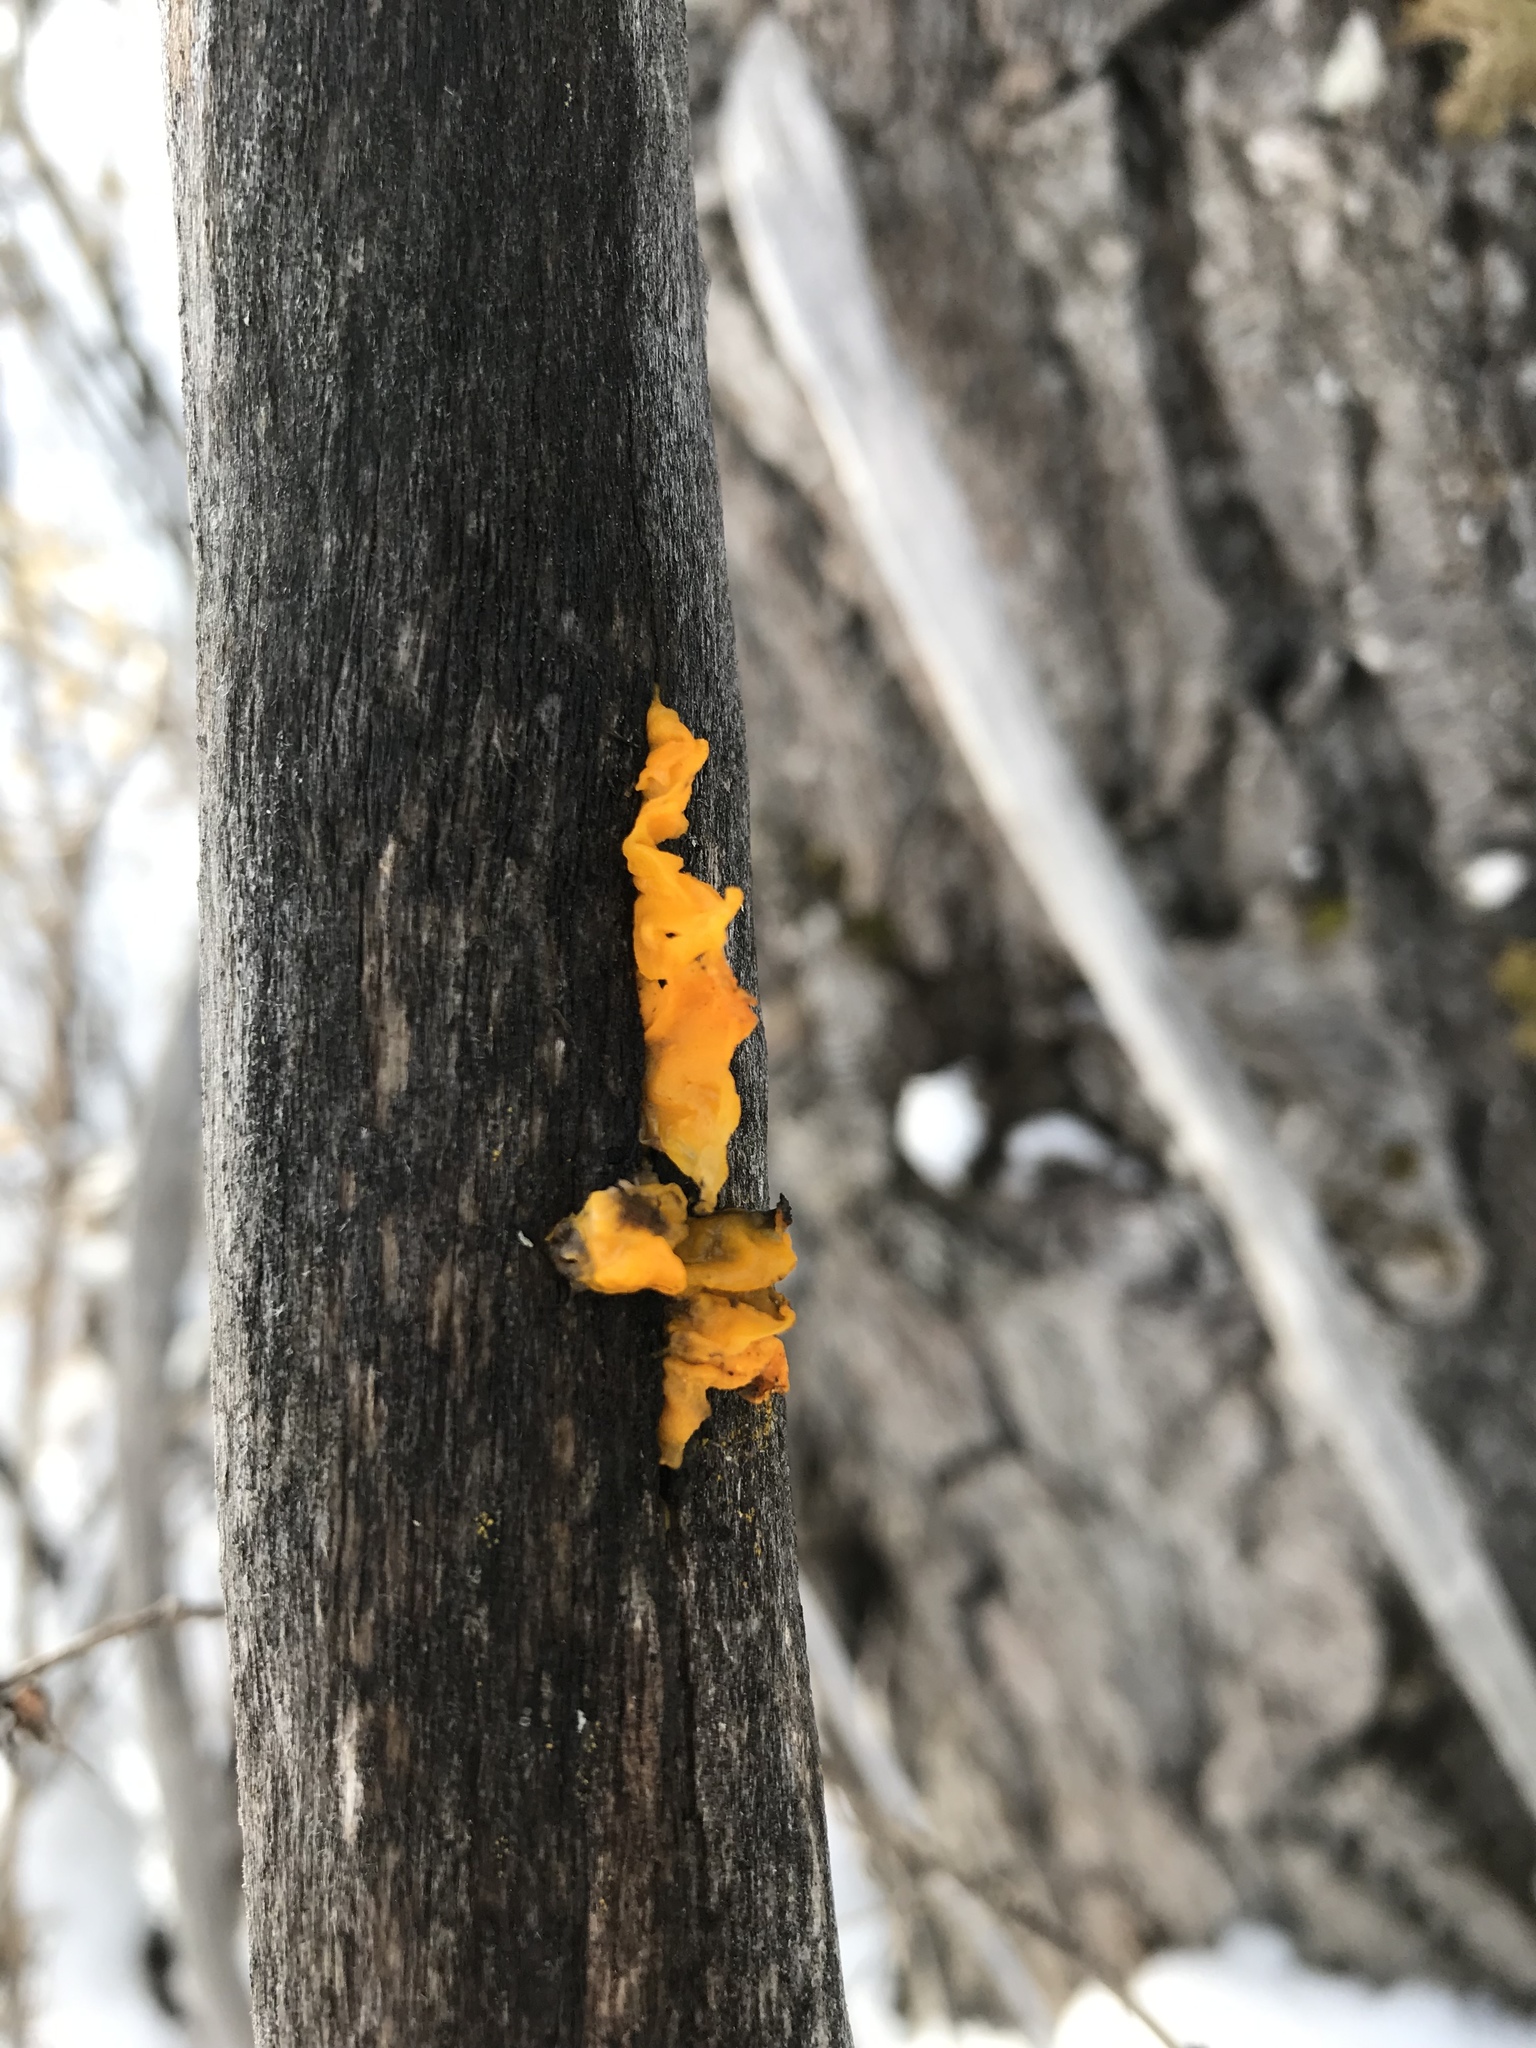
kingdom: Fungi
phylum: Basidiomycota
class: Tremellomycetes
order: Tremellales
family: Tremellaceae
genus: Tremella
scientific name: Tremella mesenterica
